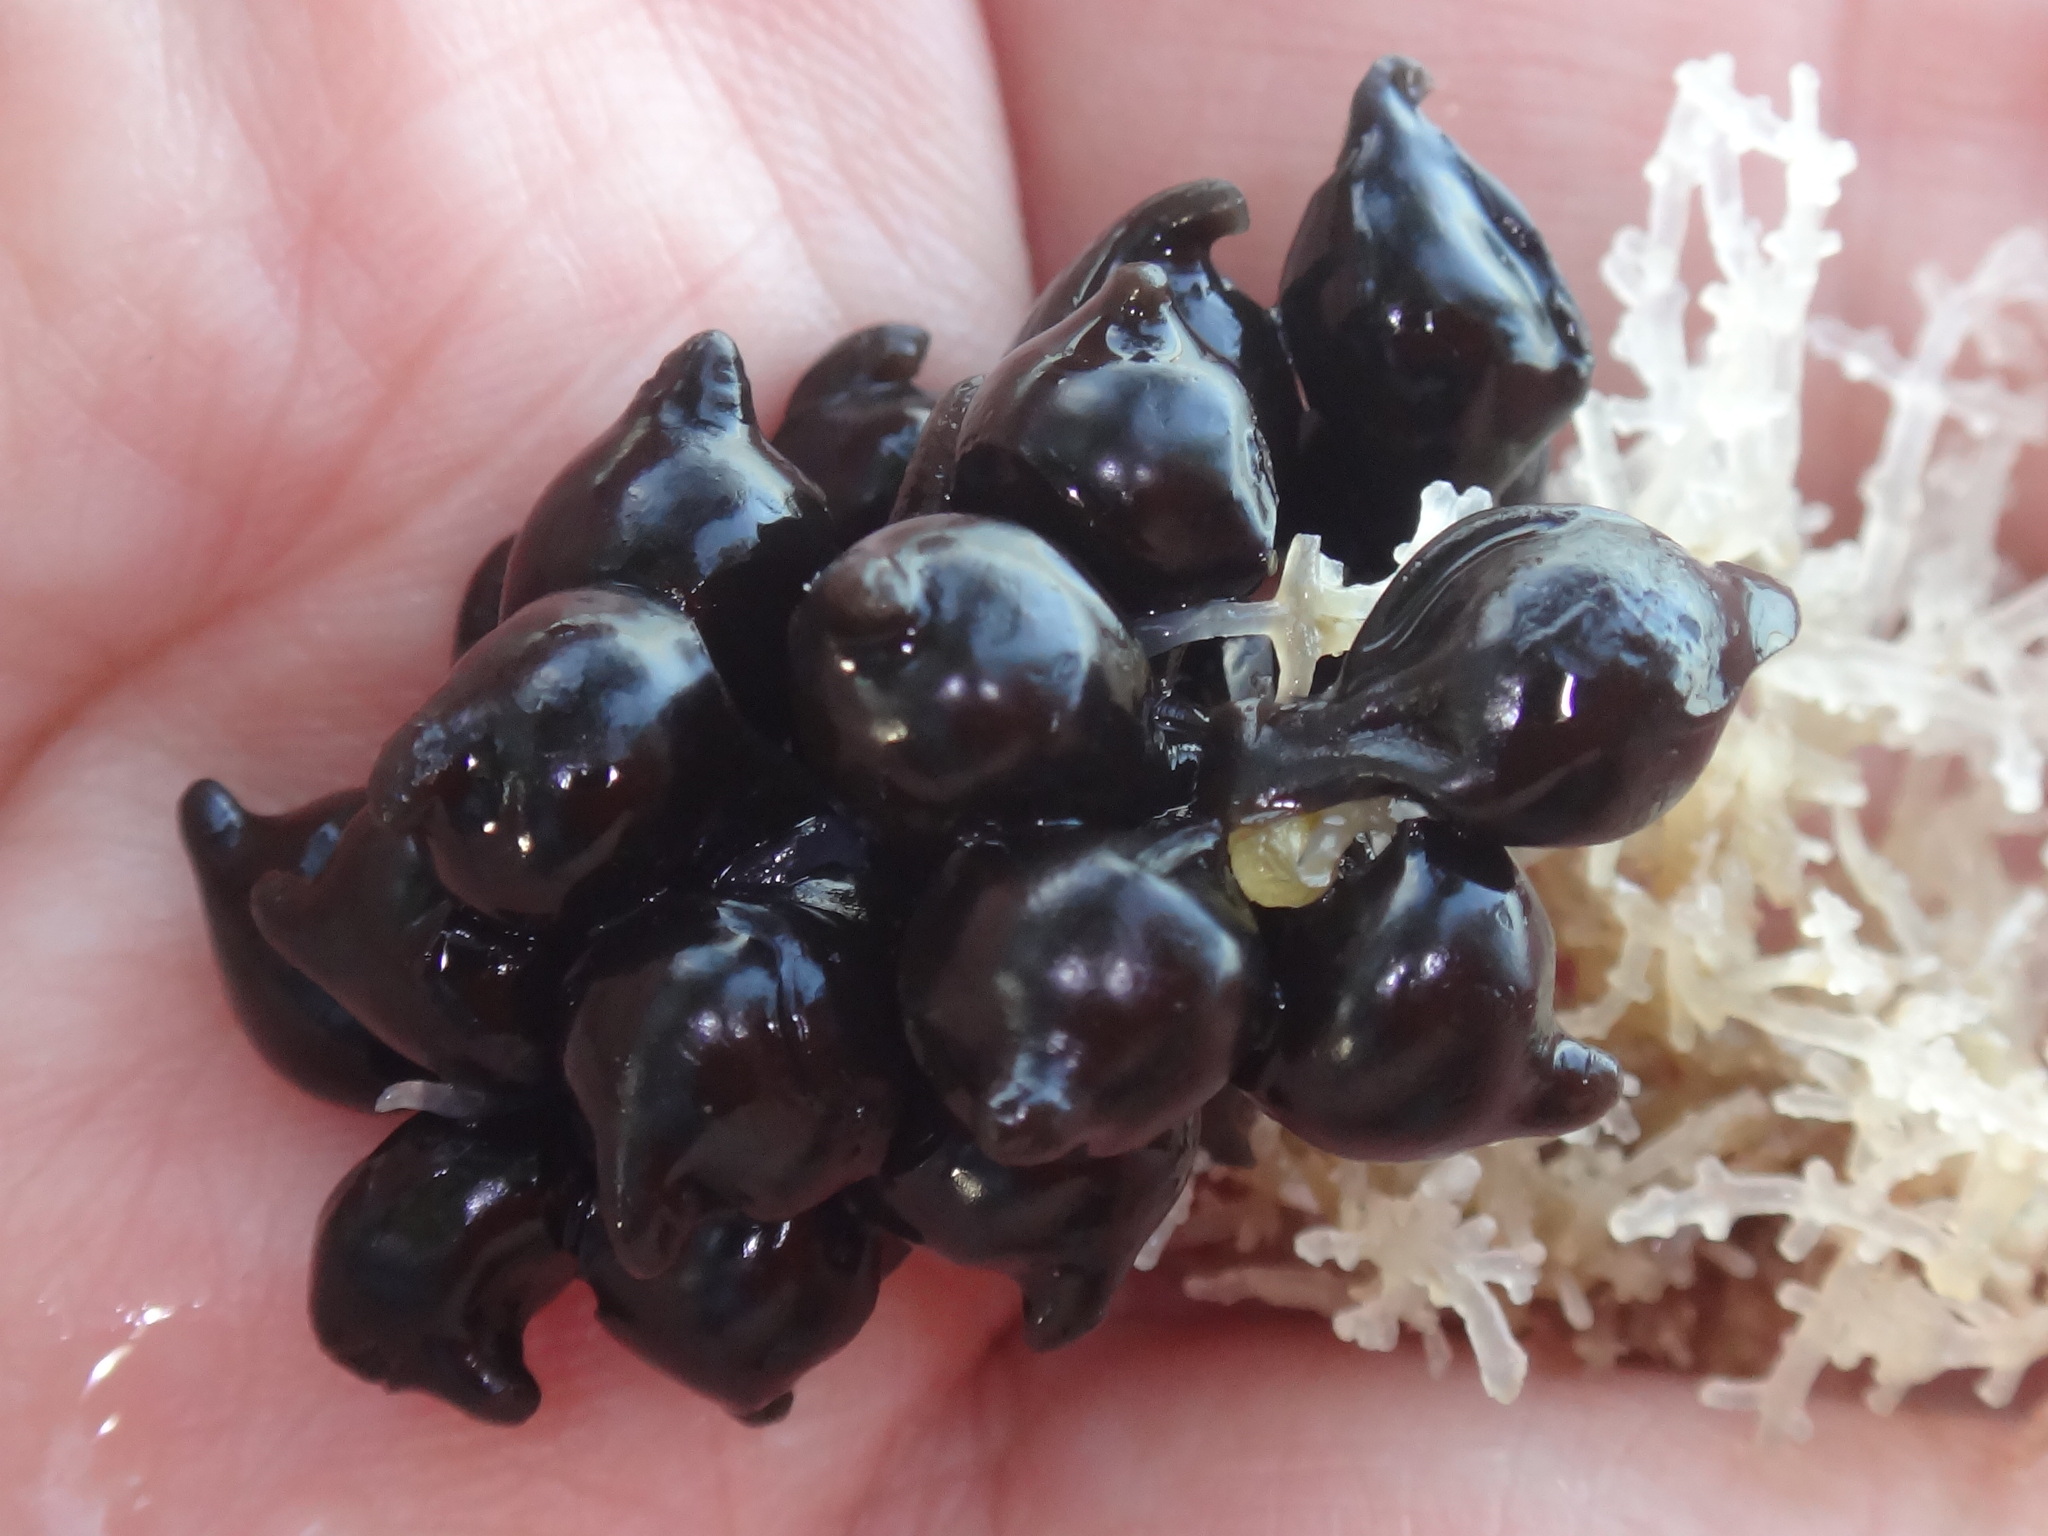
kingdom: Animalia
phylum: Mollusca
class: Cephalopoda
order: Sepiida
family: Sepiidae
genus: Sepia
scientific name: Sepia officinalis
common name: Common cuttlefish
